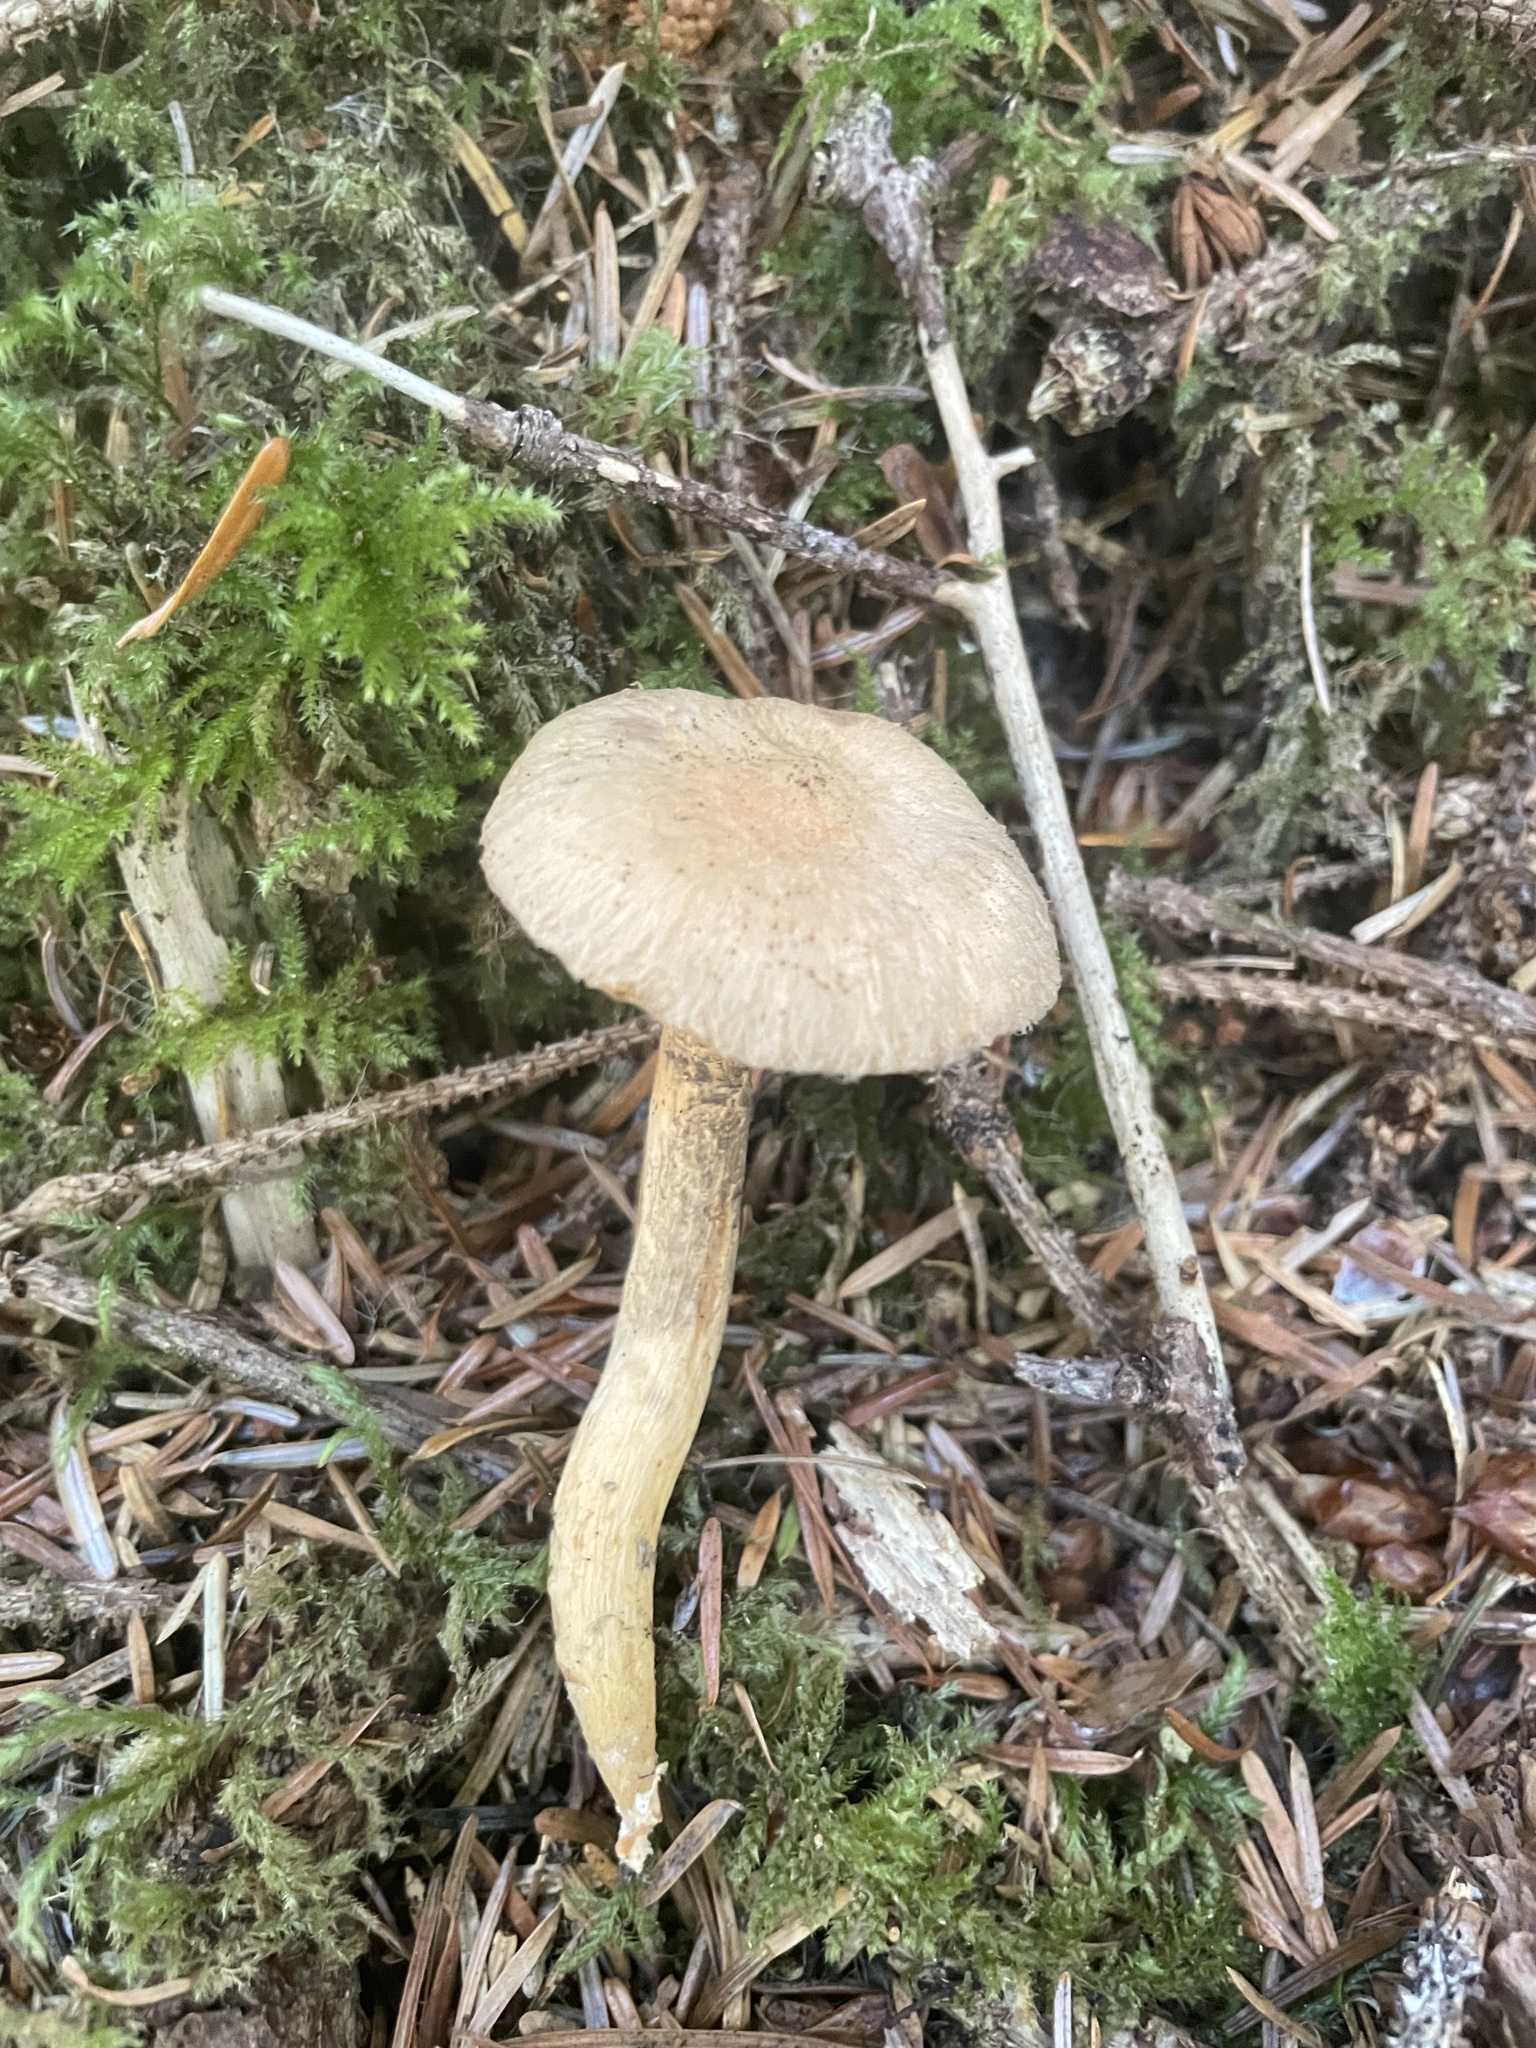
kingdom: Fungi
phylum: Basidiomycota
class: Agaricomycetes
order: Boletales
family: Gomphidiaceae
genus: Chroogomphus
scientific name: Chroogomphus tomentosus
